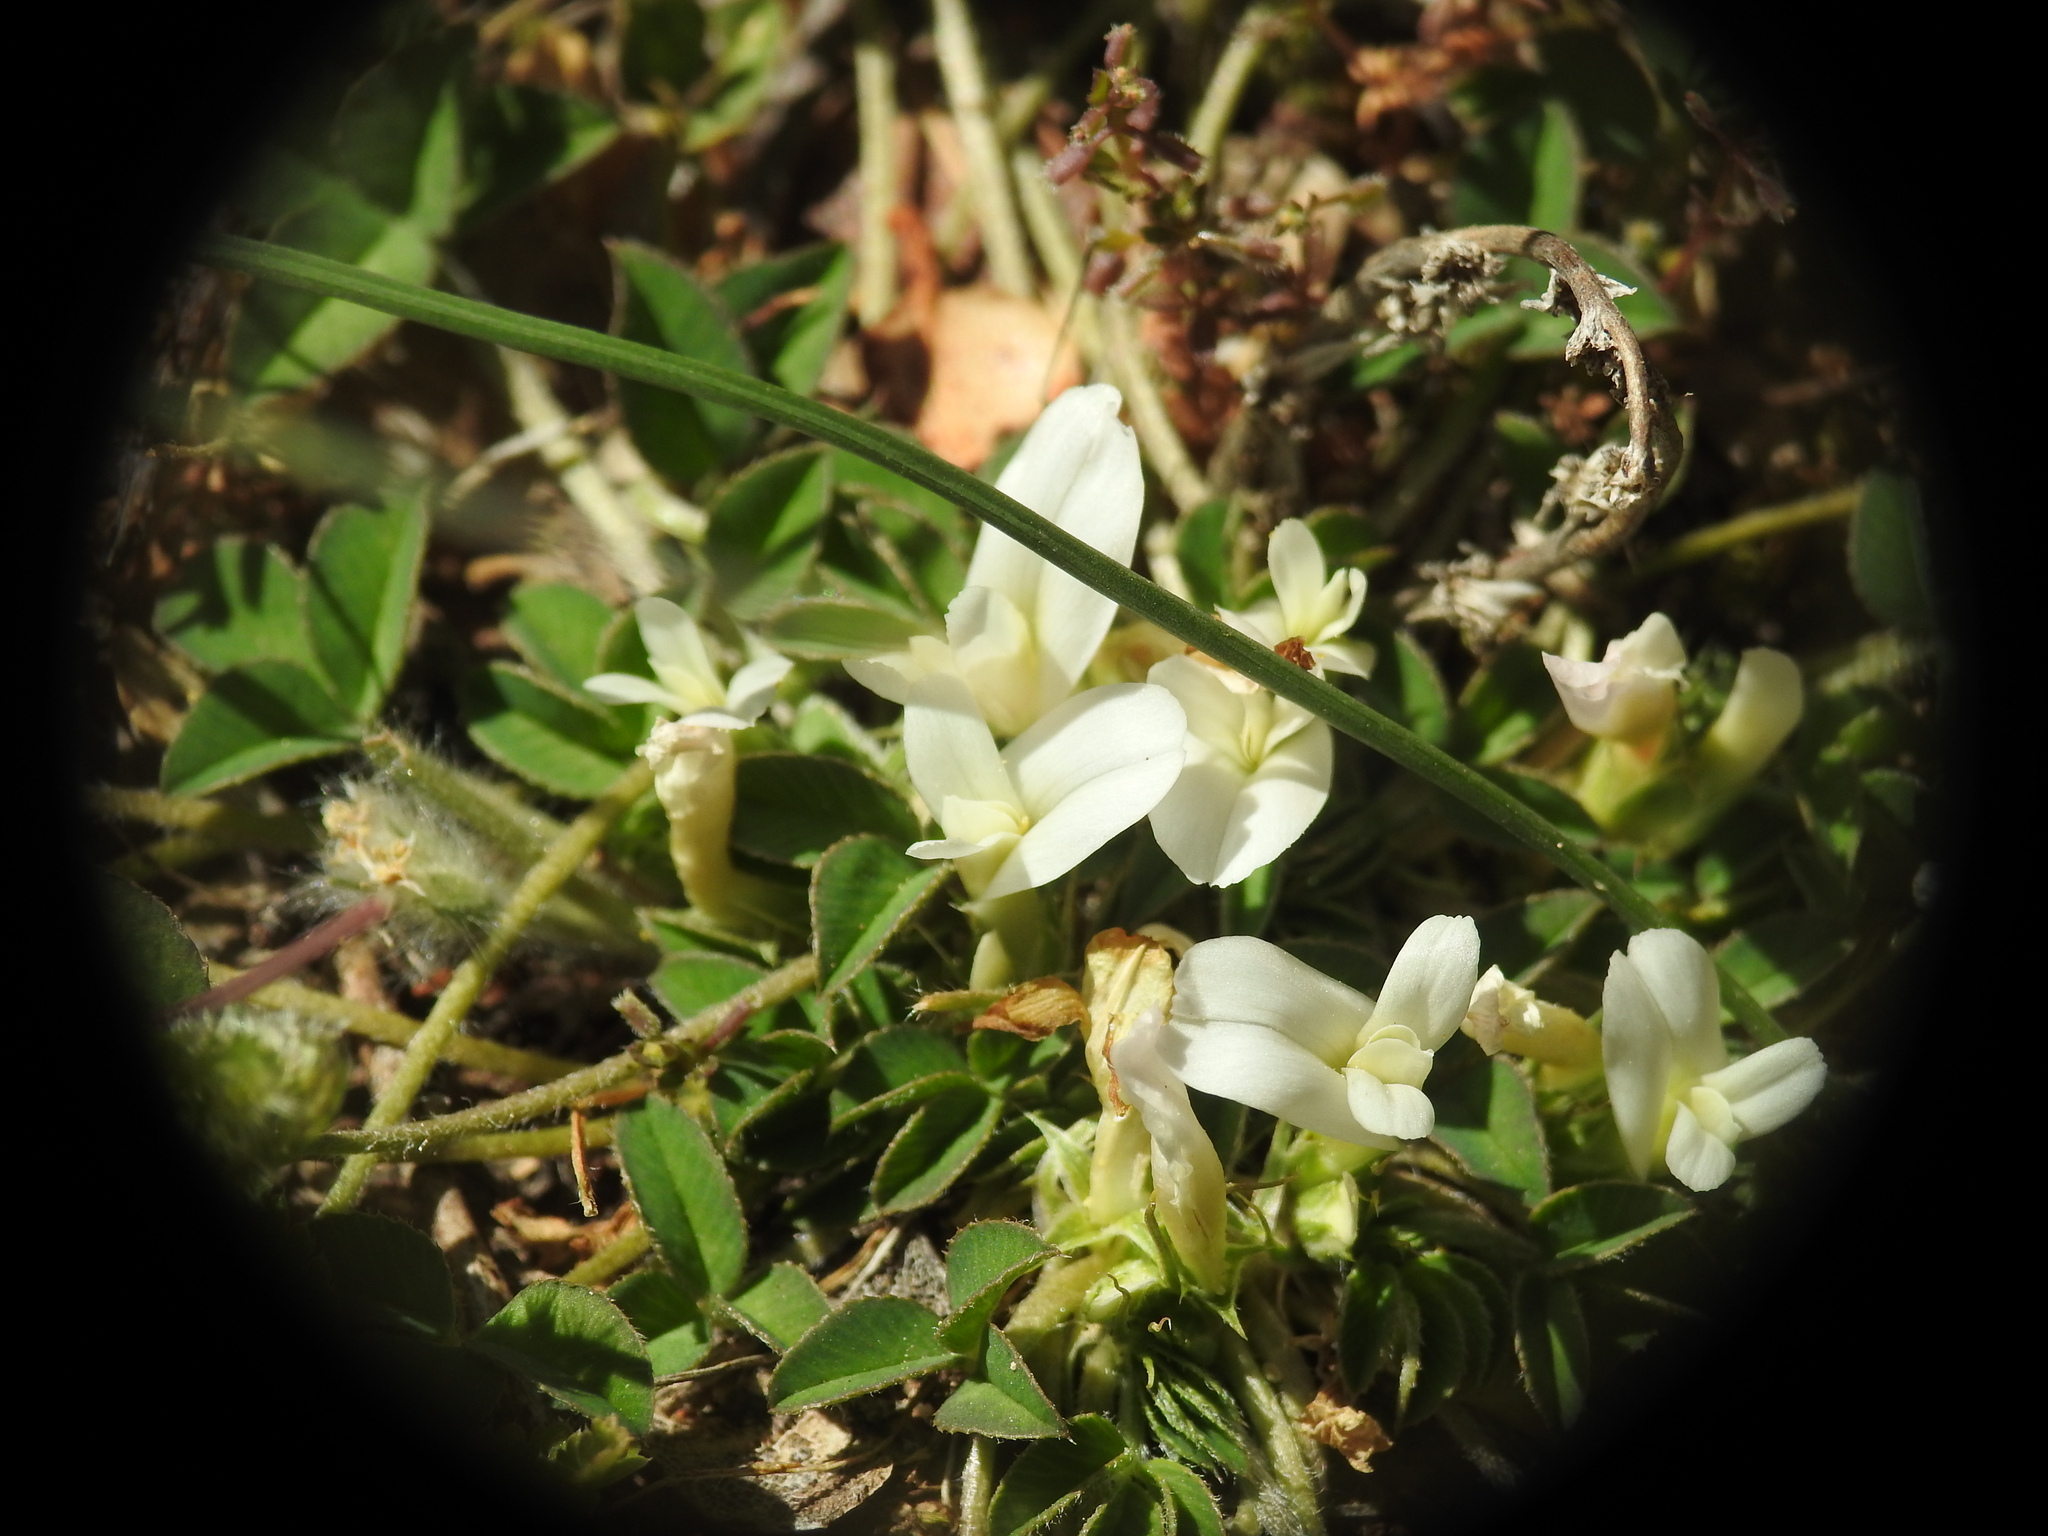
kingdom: Plantae
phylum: Tracheophyta
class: Magnoliopsida
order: Fabales
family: Fabaceae
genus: Trifolium
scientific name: Trifolium uniflorum
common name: One-flower clover
